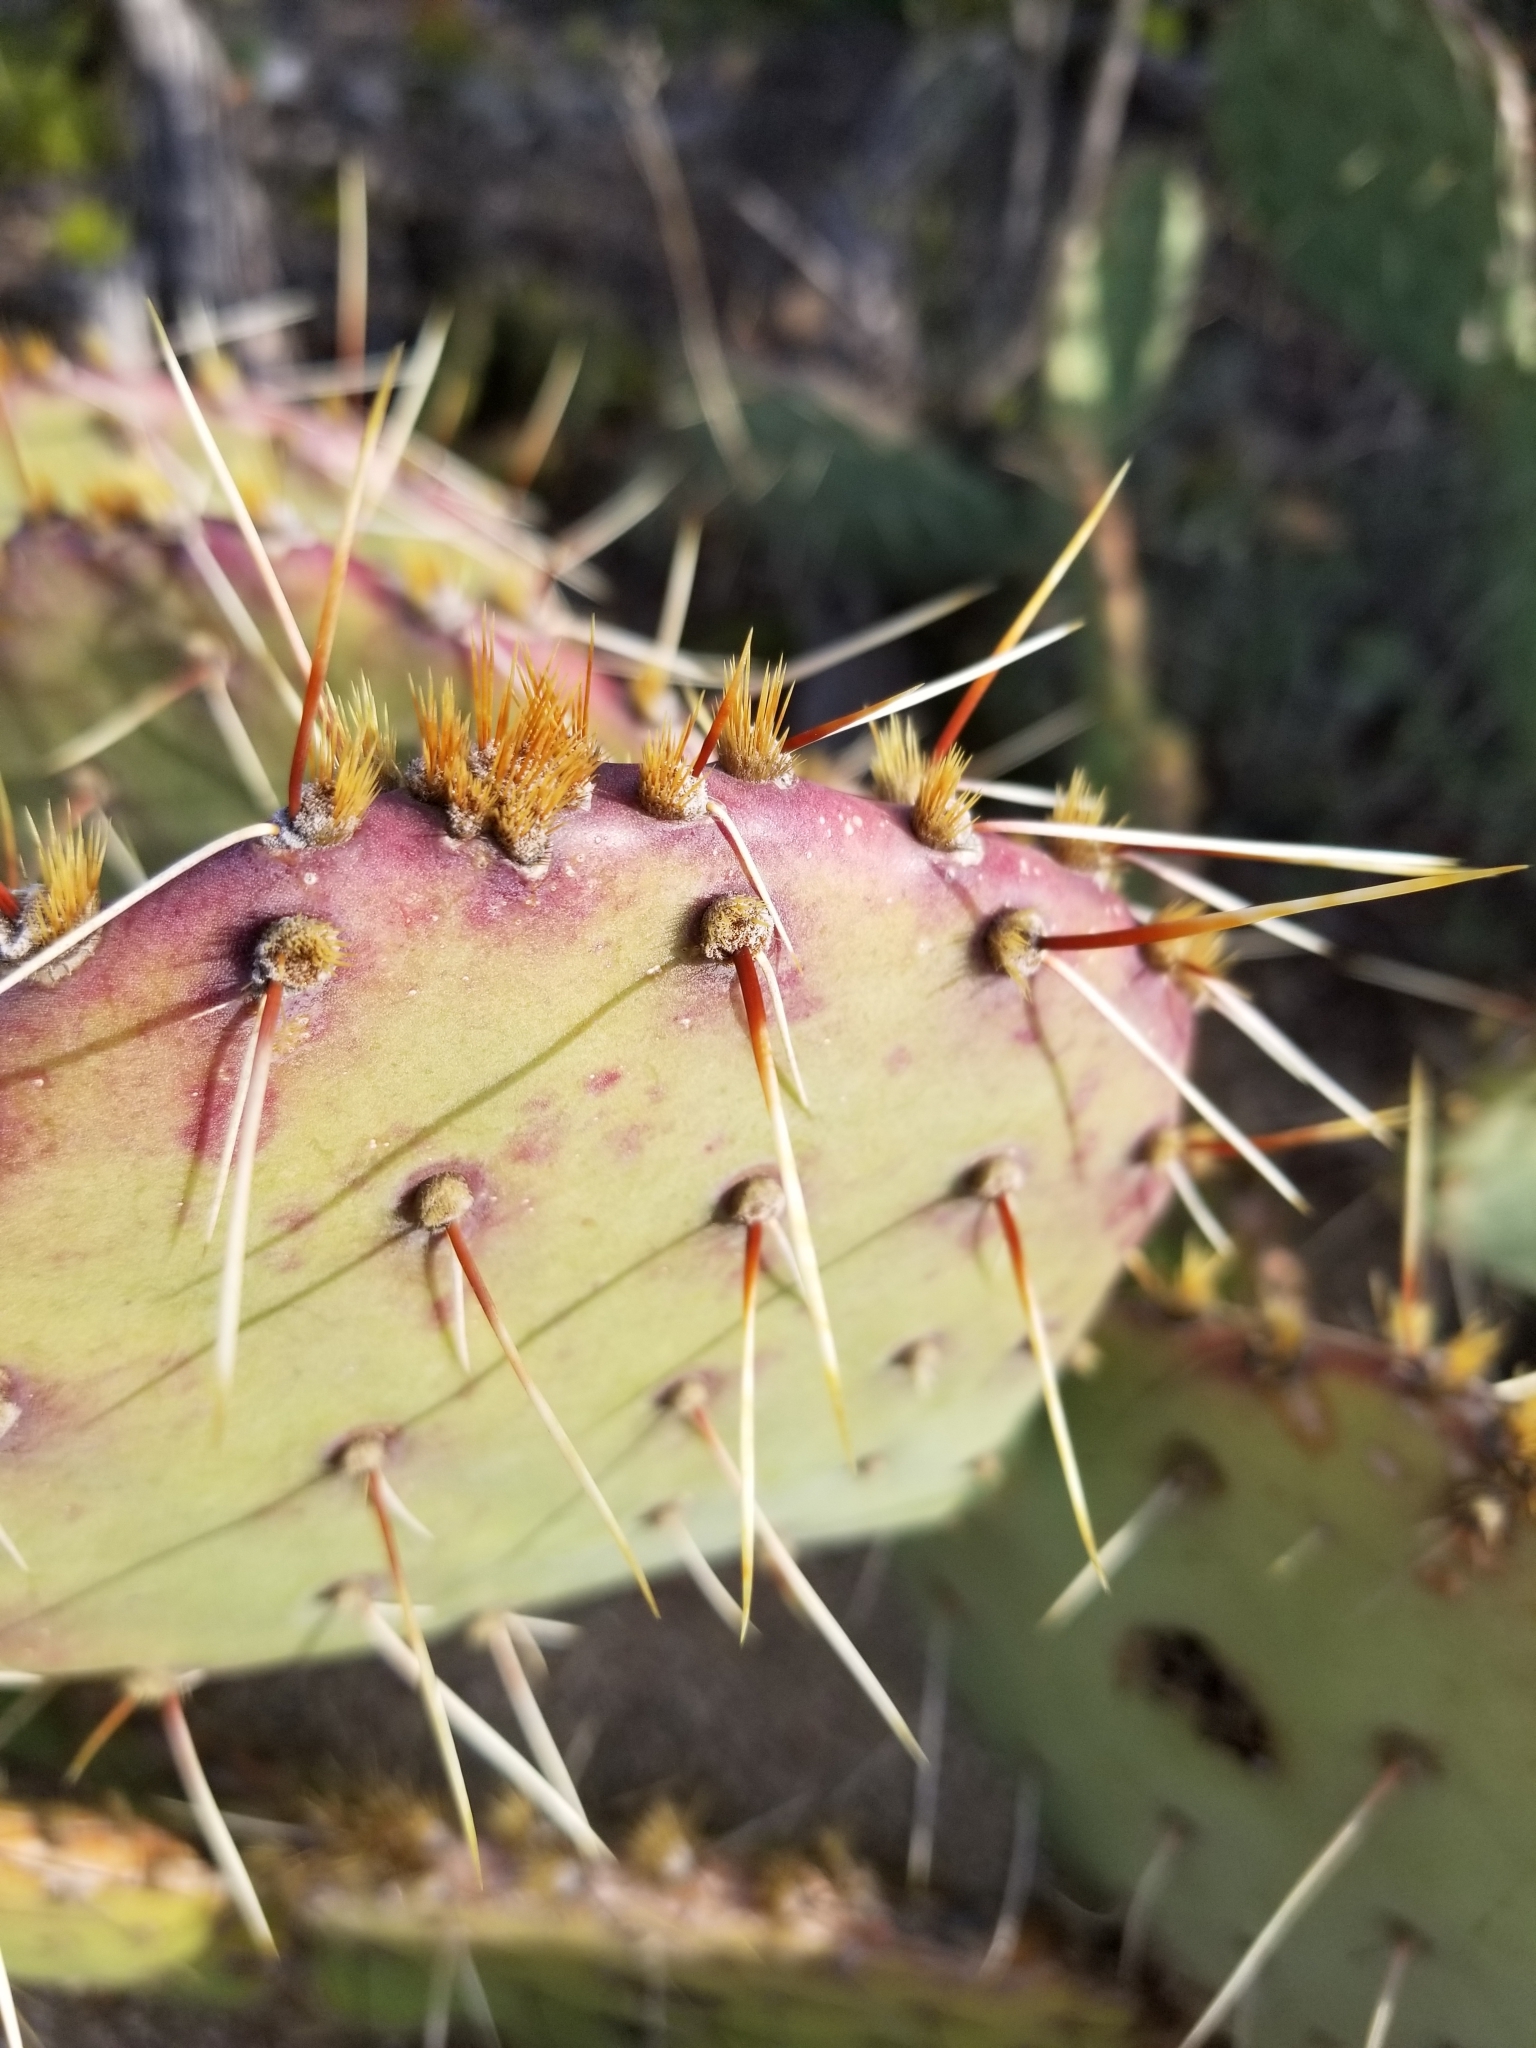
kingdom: Plantae
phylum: Tracheophyta
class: Magnoliopsida
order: Caryophyllales
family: Cactaceae
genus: Opuntia
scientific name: Opuntia phaeacantha
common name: New mexico prickly-pear
